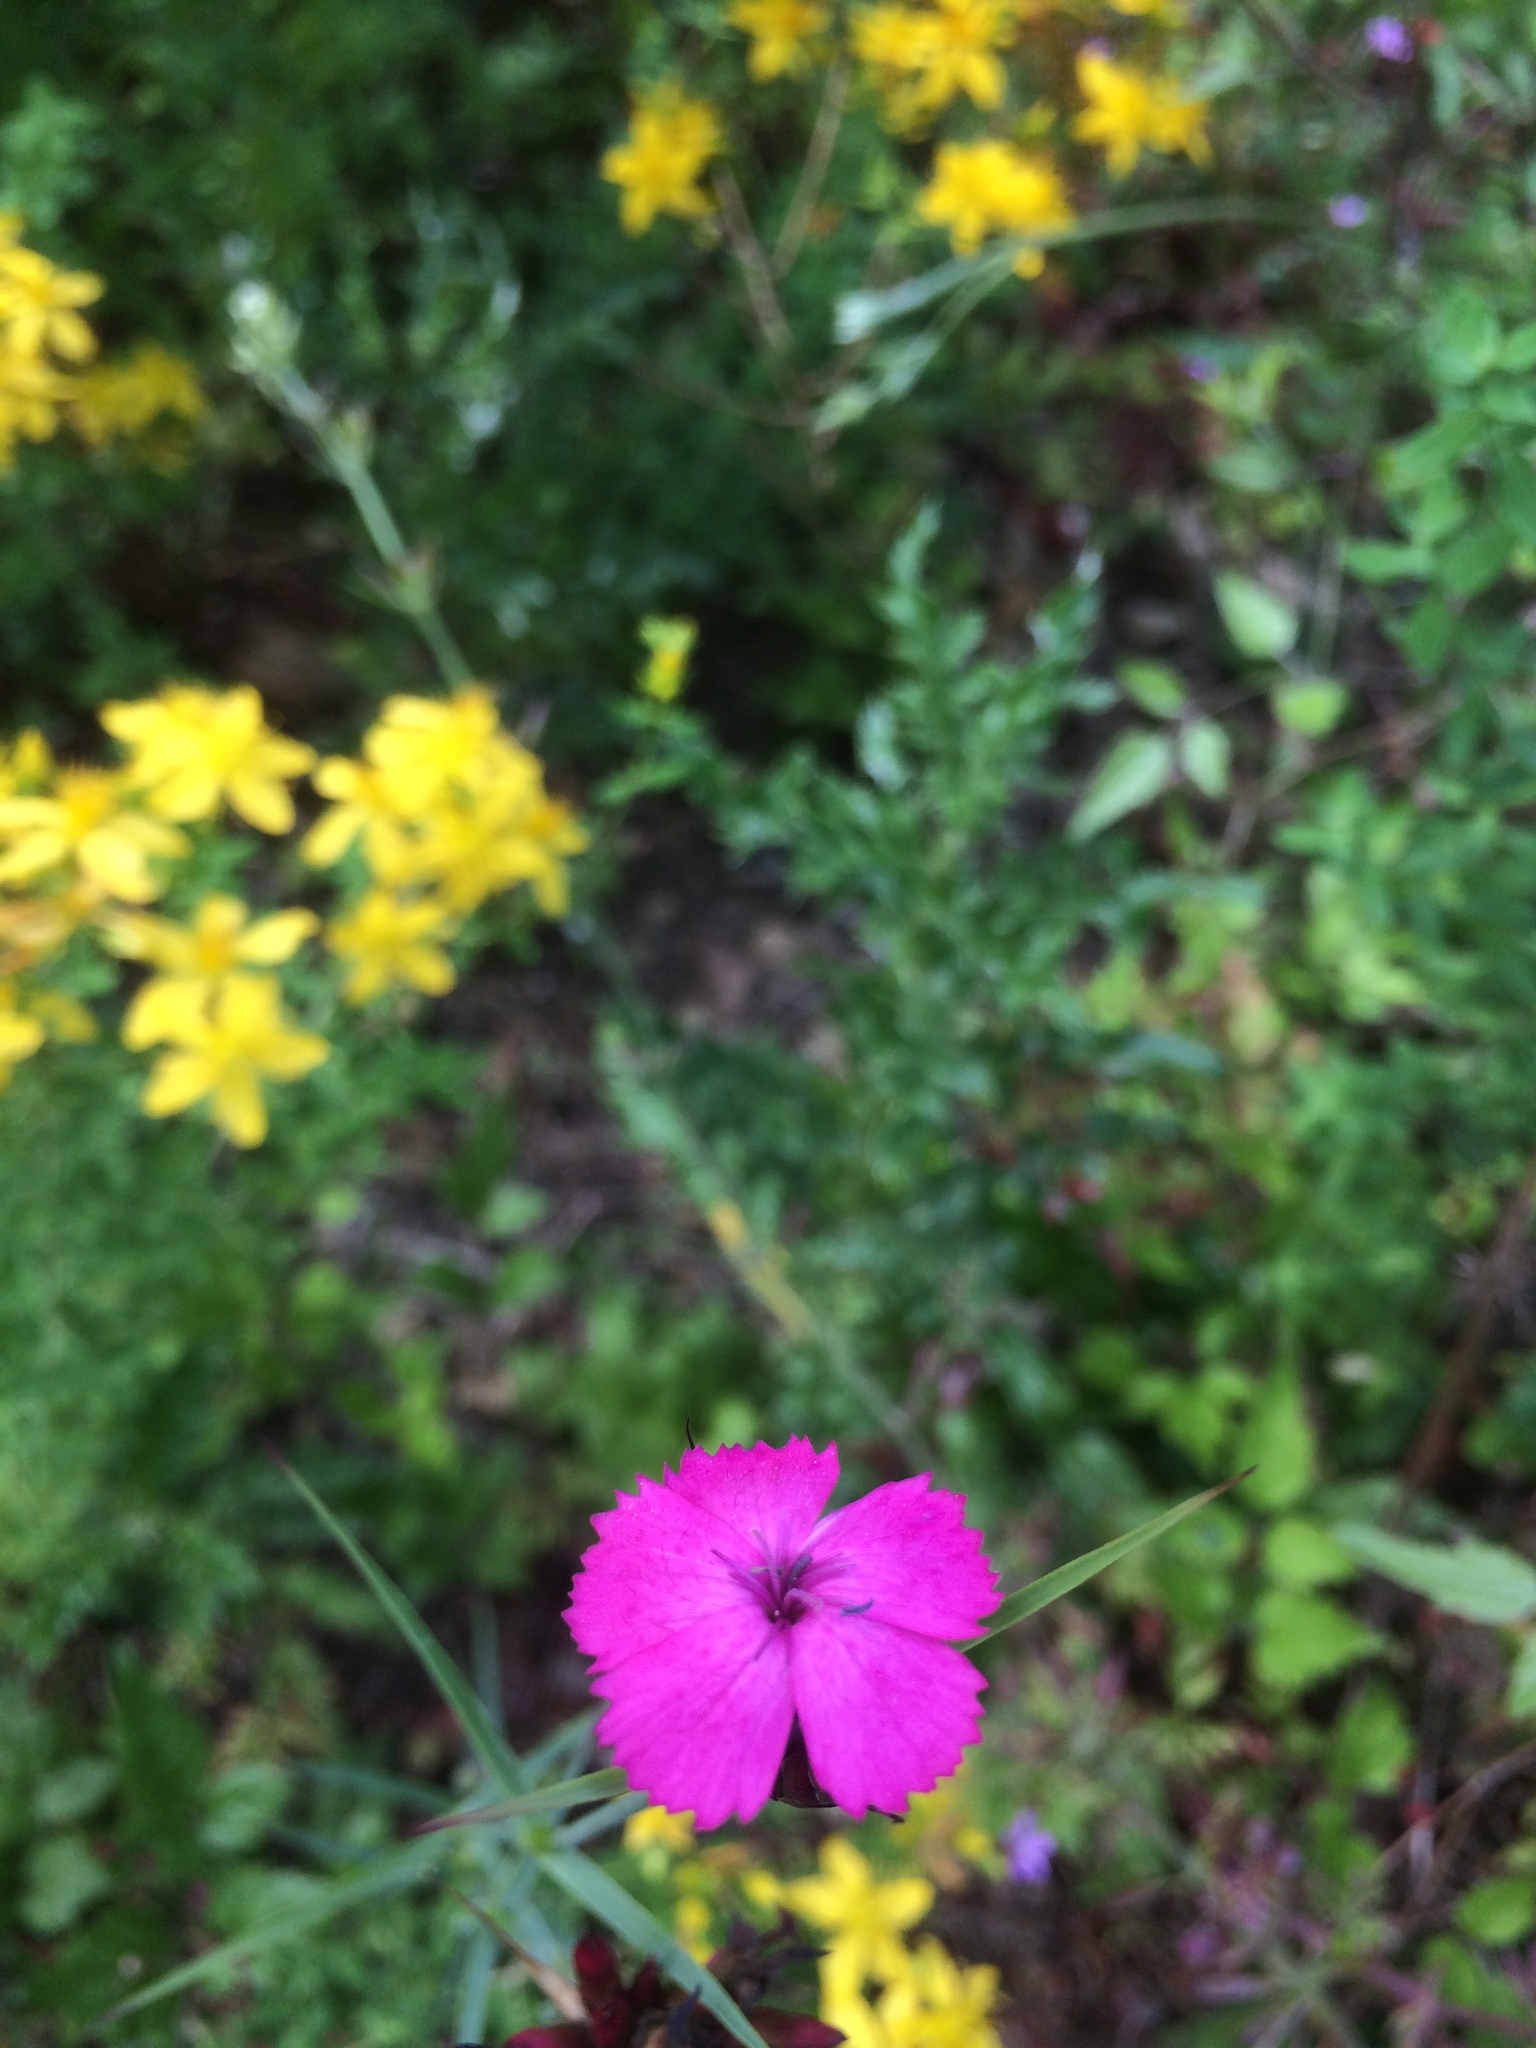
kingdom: Plantae
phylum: Tracheophyta
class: Magnoliopsida
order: Caryophyllales
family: Caryophyllaceae
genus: Dianthus
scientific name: Dianthus carthusianorum
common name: Carthusian pink
